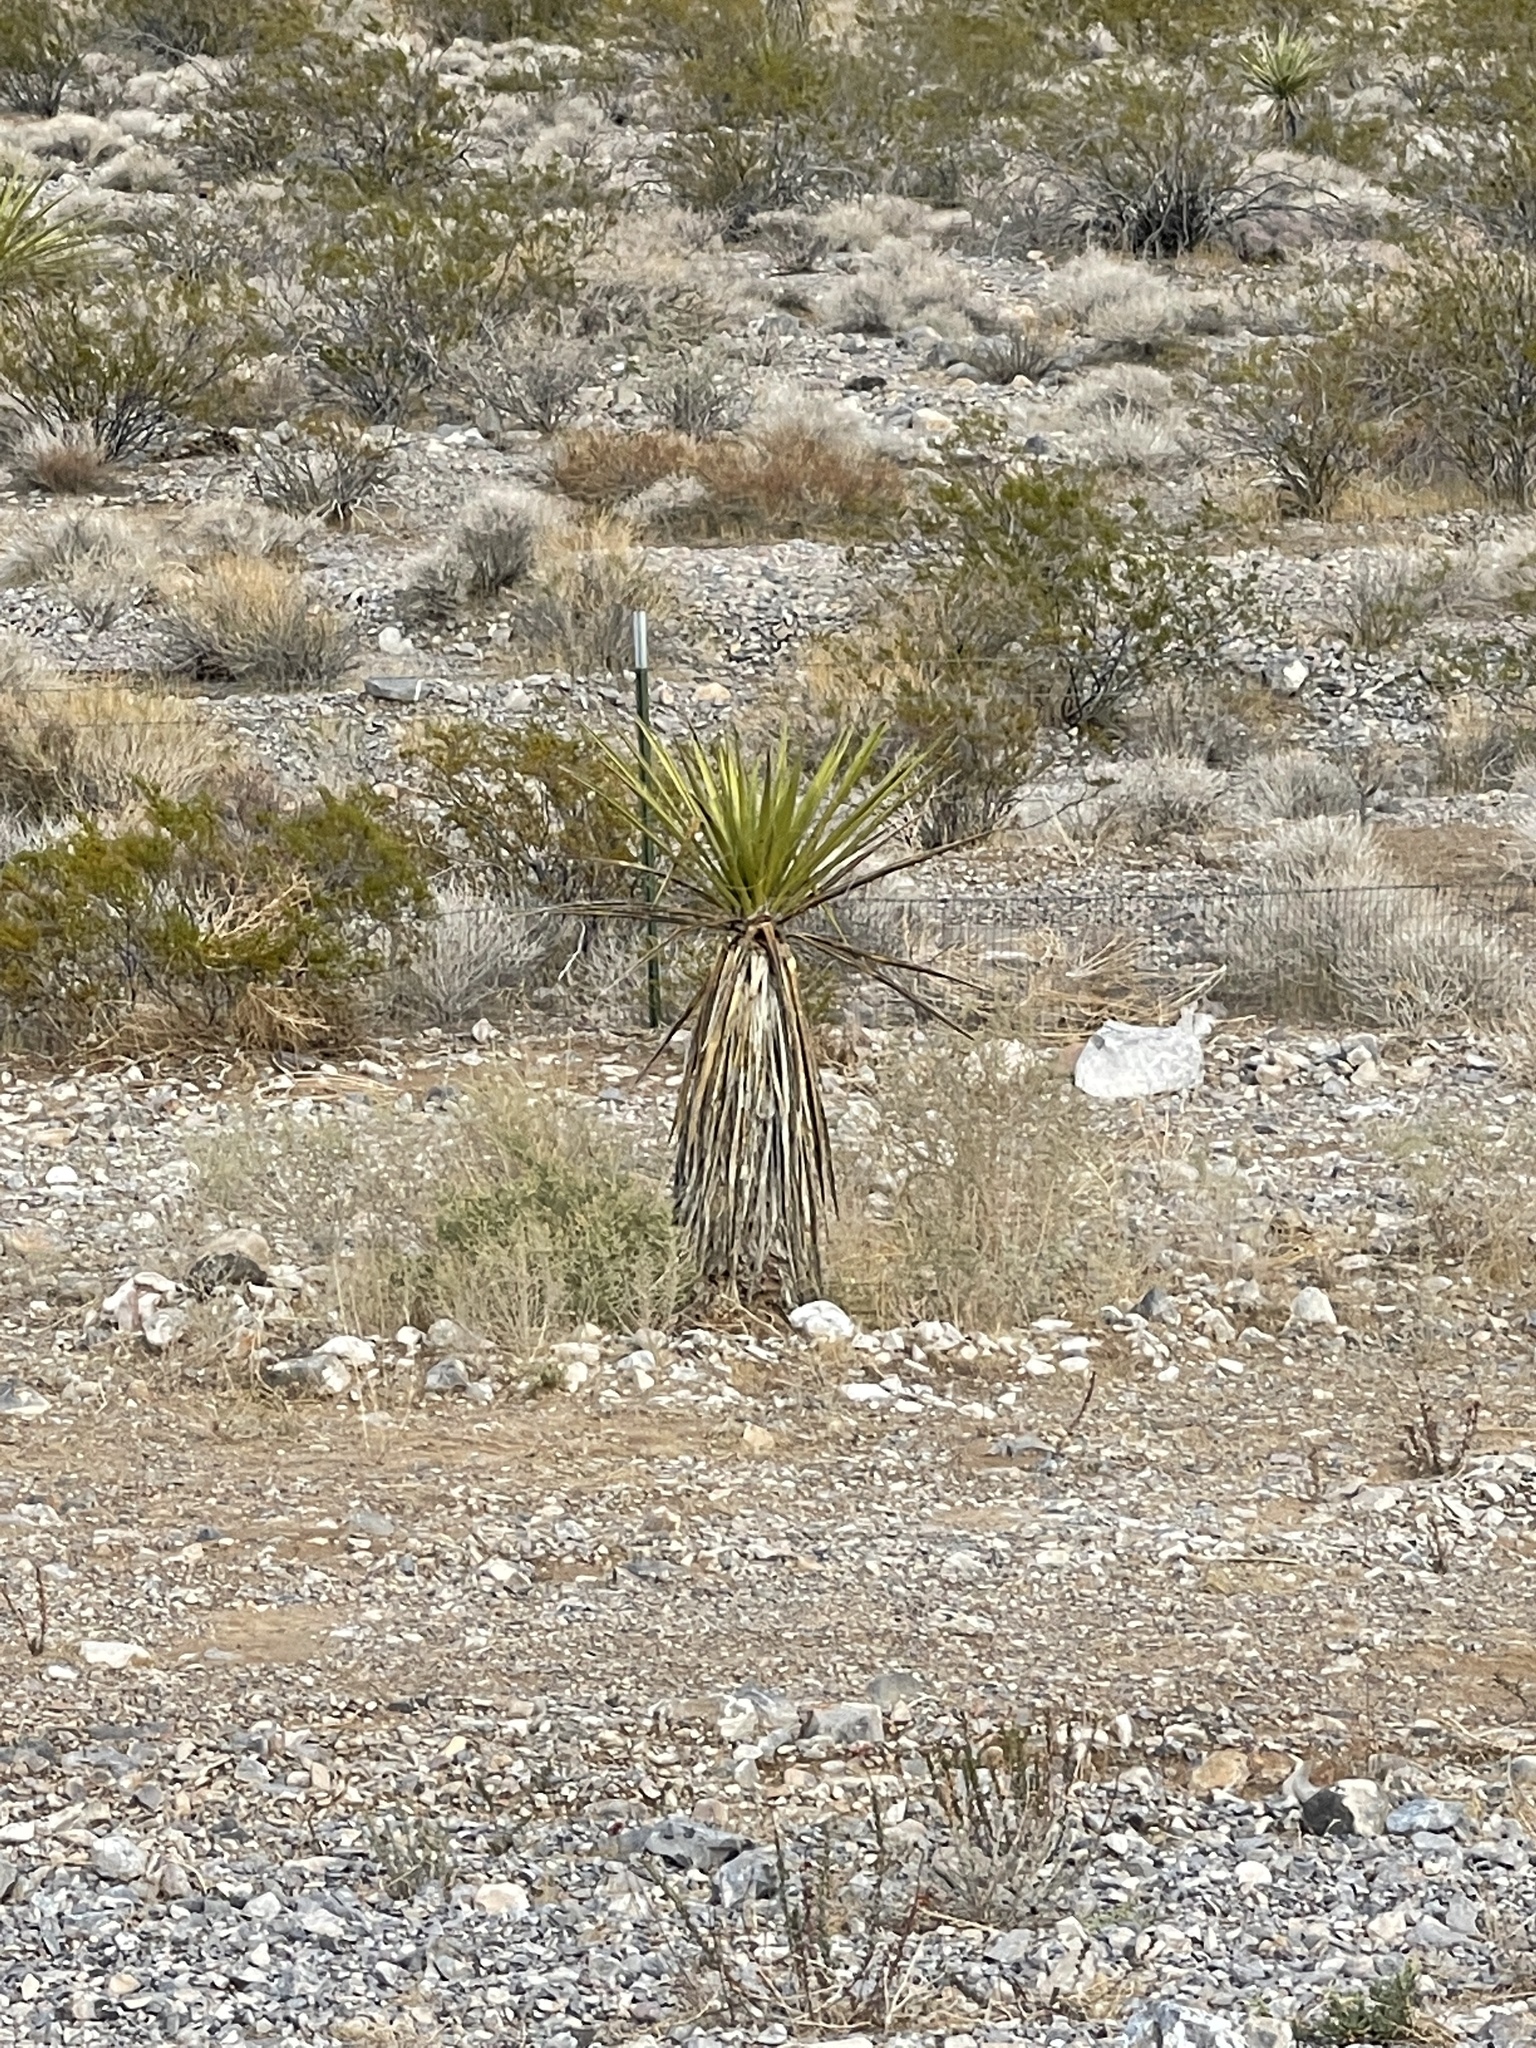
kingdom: Plantae
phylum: Tracheophyta
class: Liliopsida
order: Asparagales
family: Asparagaceae
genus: Yucca
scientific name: Yucca schidigera
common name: Mojave yucca
